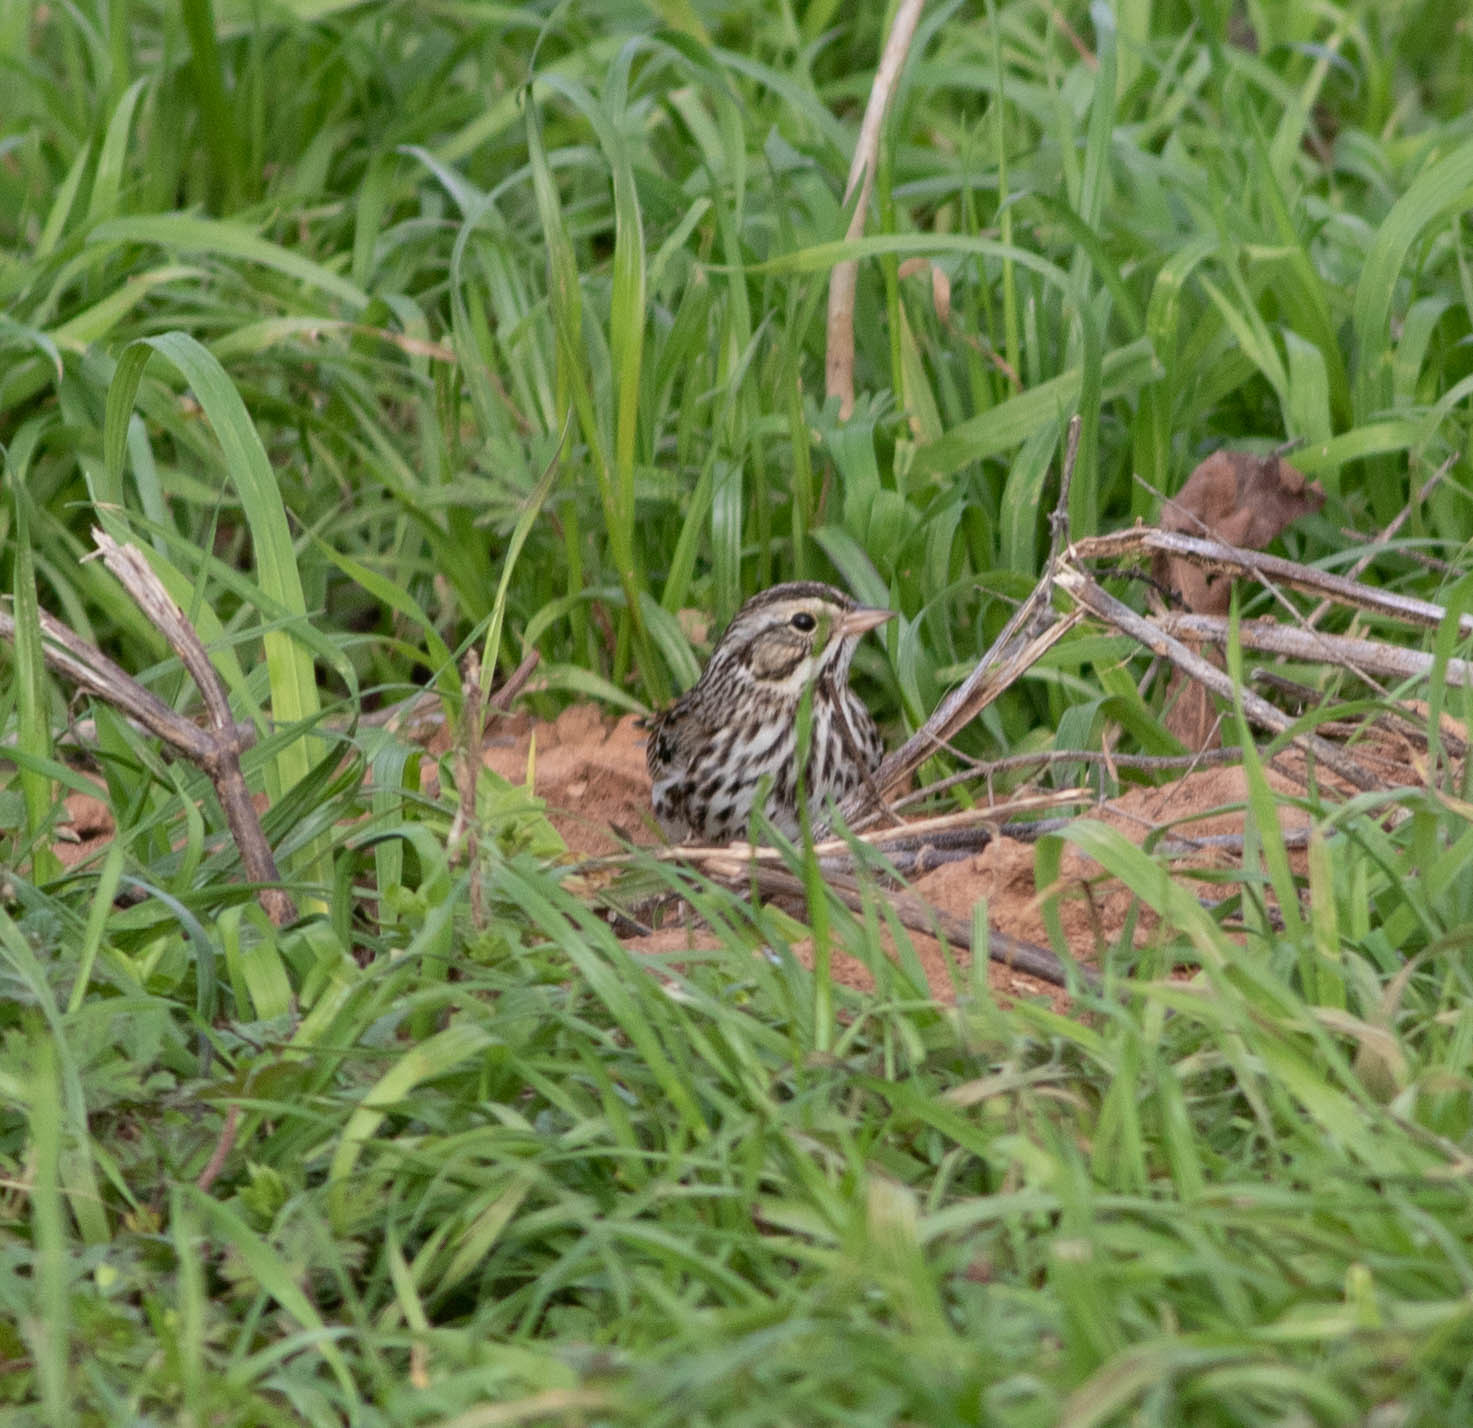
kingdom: Animalia
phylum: Chordata
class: Aves
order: Passeriformes
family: Passerellidae
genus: Passerculus
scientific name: Passerculus sandwichensis
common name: Savannah sparrow
